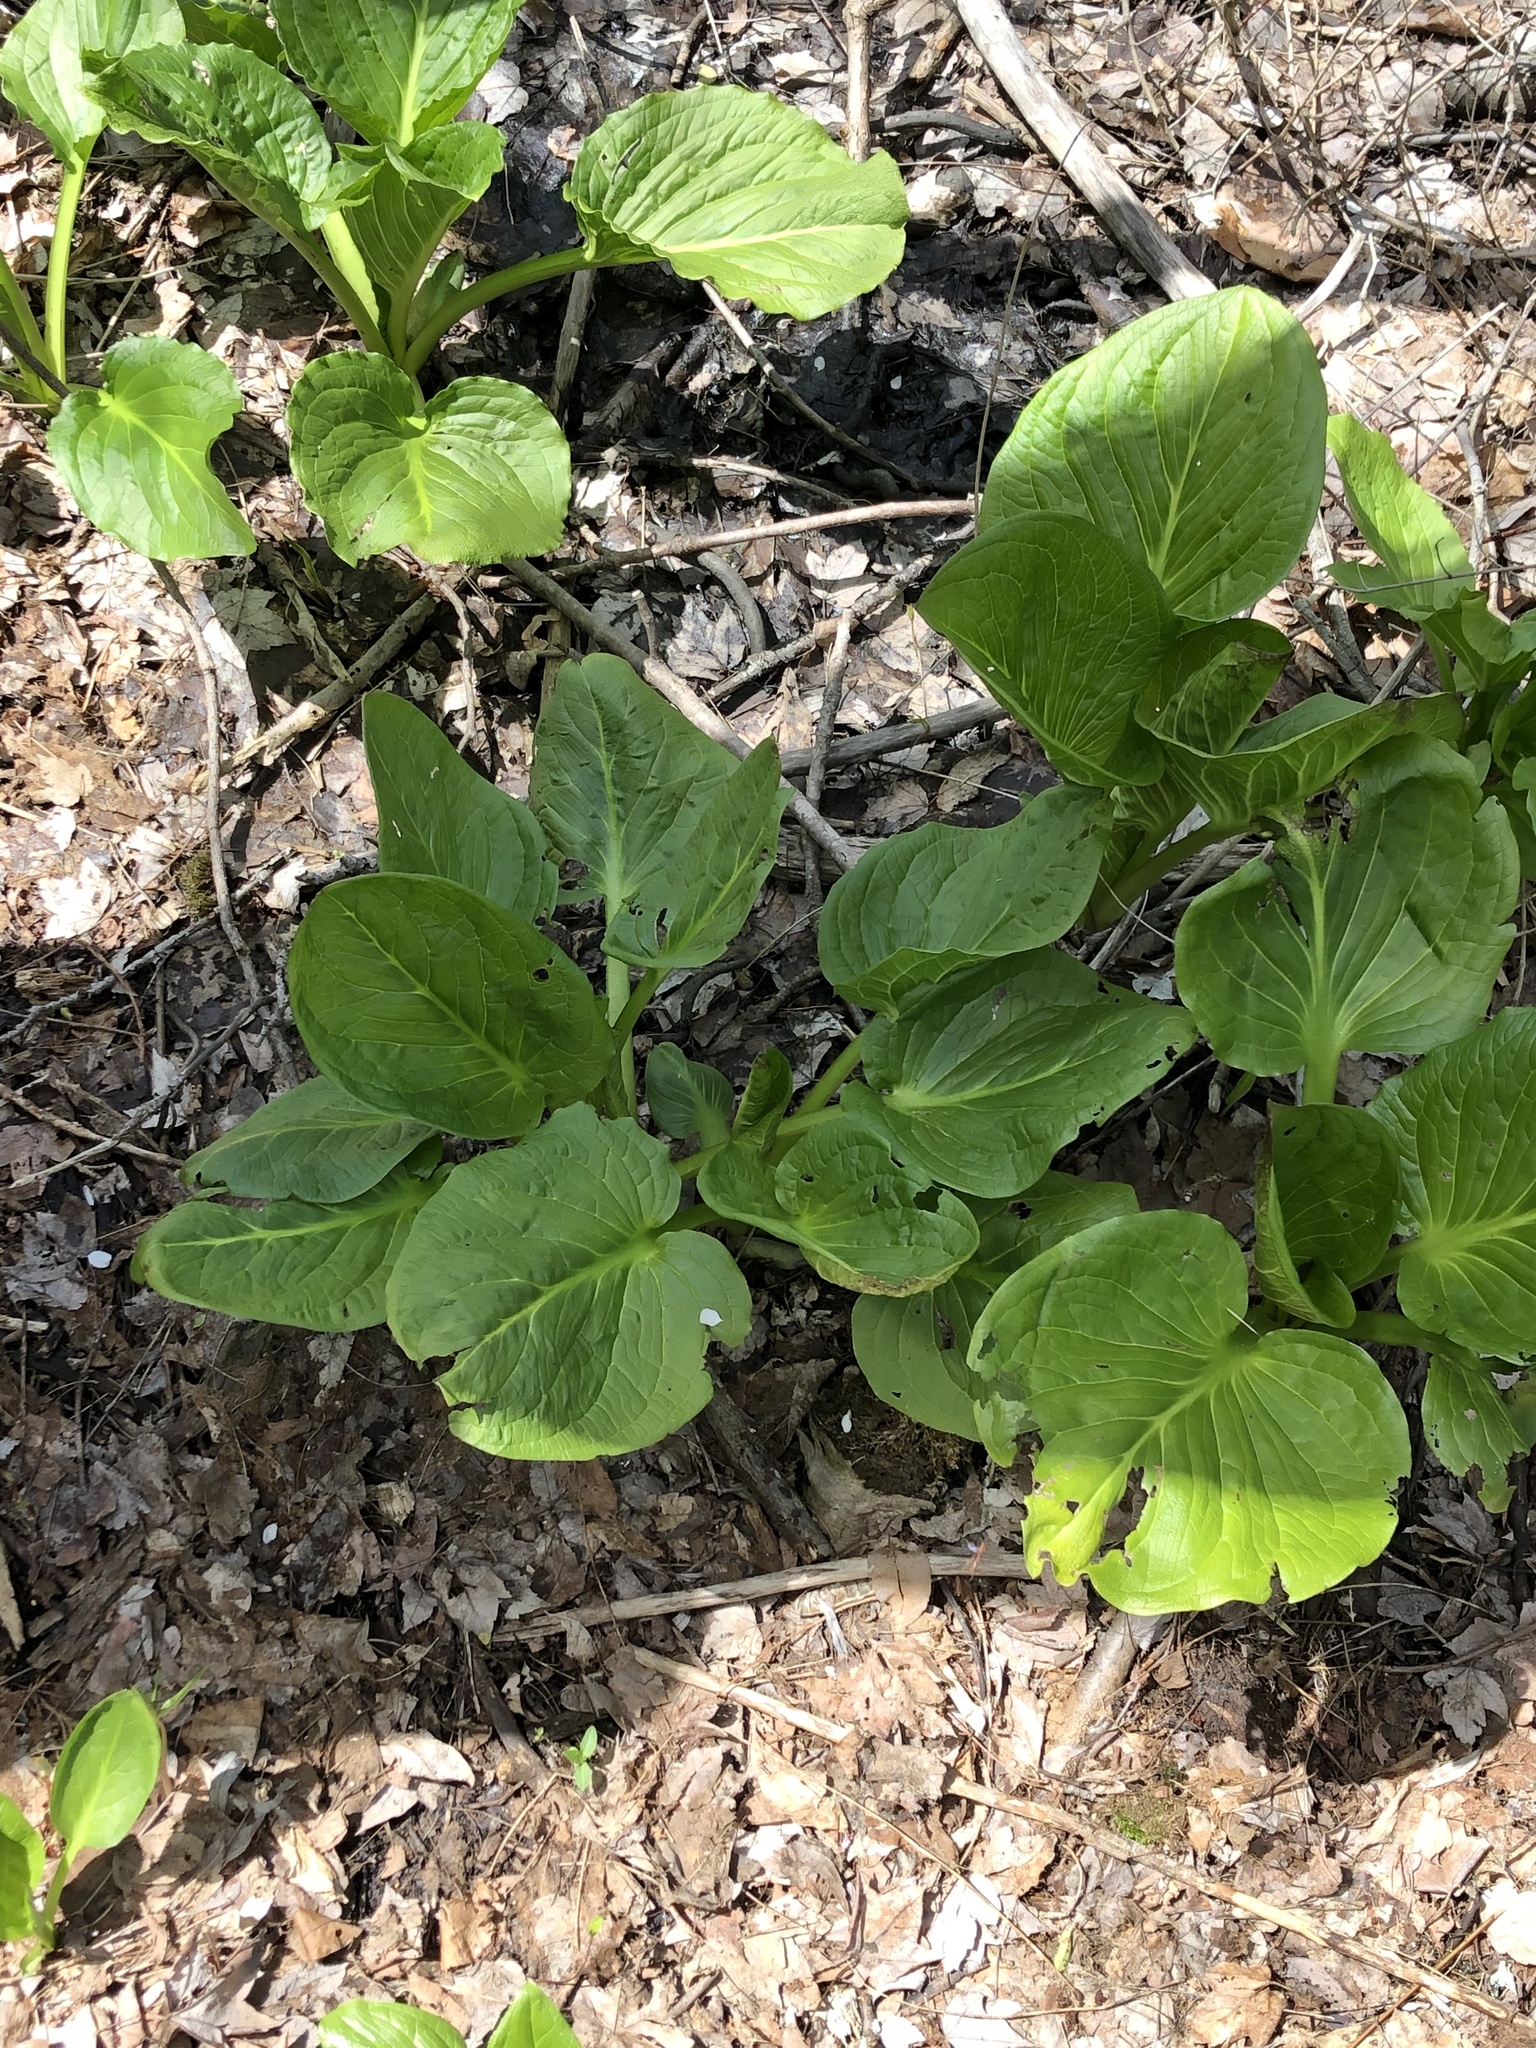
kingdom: Plantae
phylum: Tracheophyta
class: Liliopsida
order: Alismatales
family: Araceae
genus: Symplocarpus
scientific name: Symplocarpus foetidus
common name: Eastern skunk cabbage
